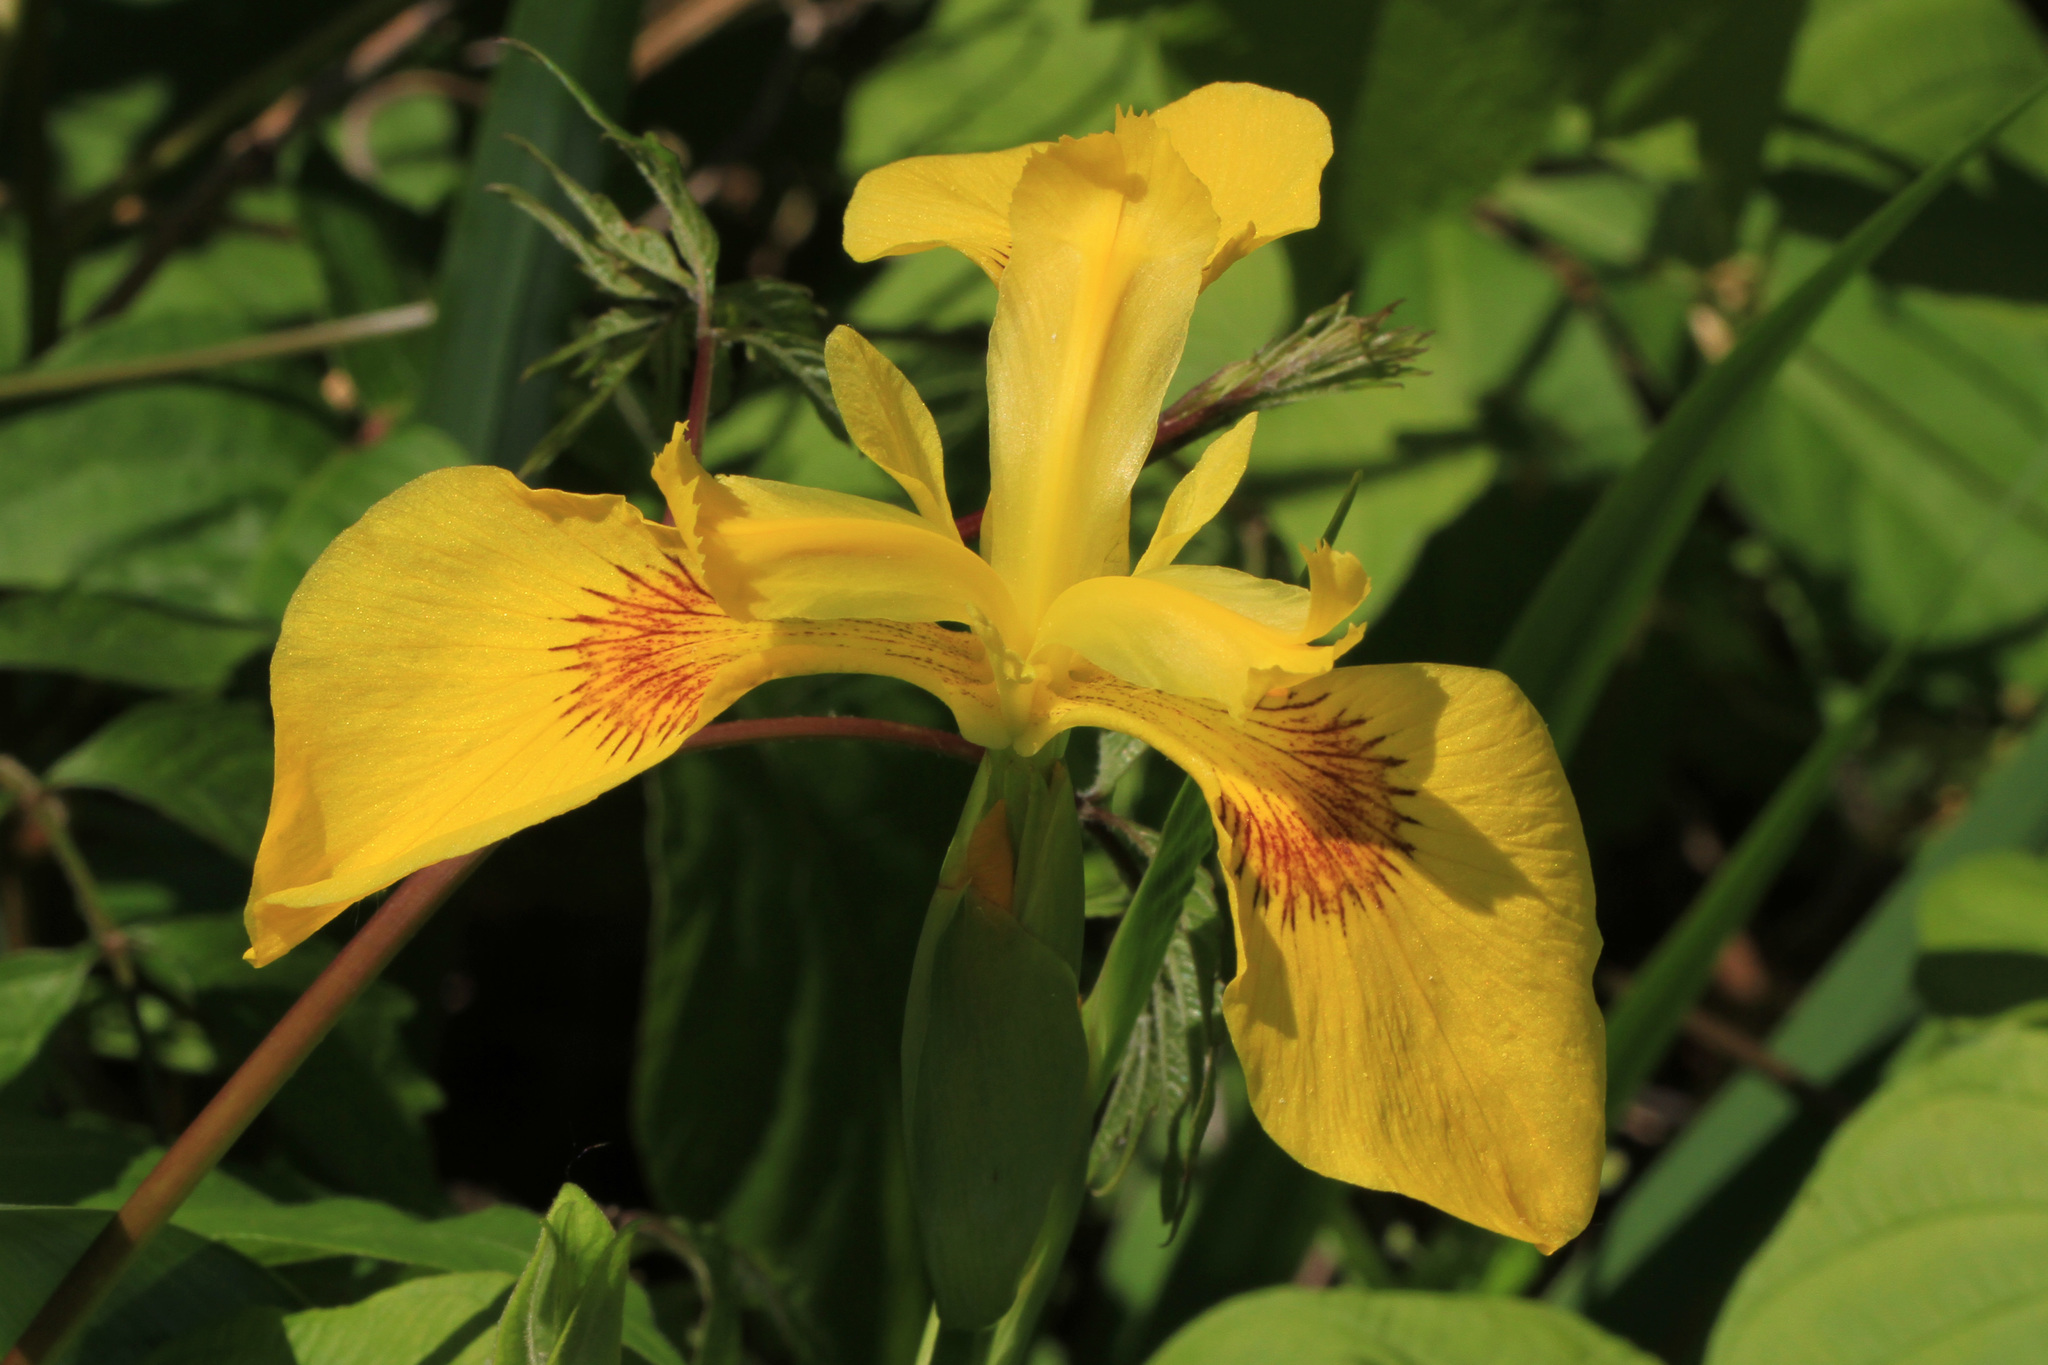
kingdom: Plantae
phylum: Tracheophyta
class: Liliopsida
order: Asparagales
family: Iridaceae
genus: Iris
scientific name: Iris pseudacorus
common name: Yellow flag
